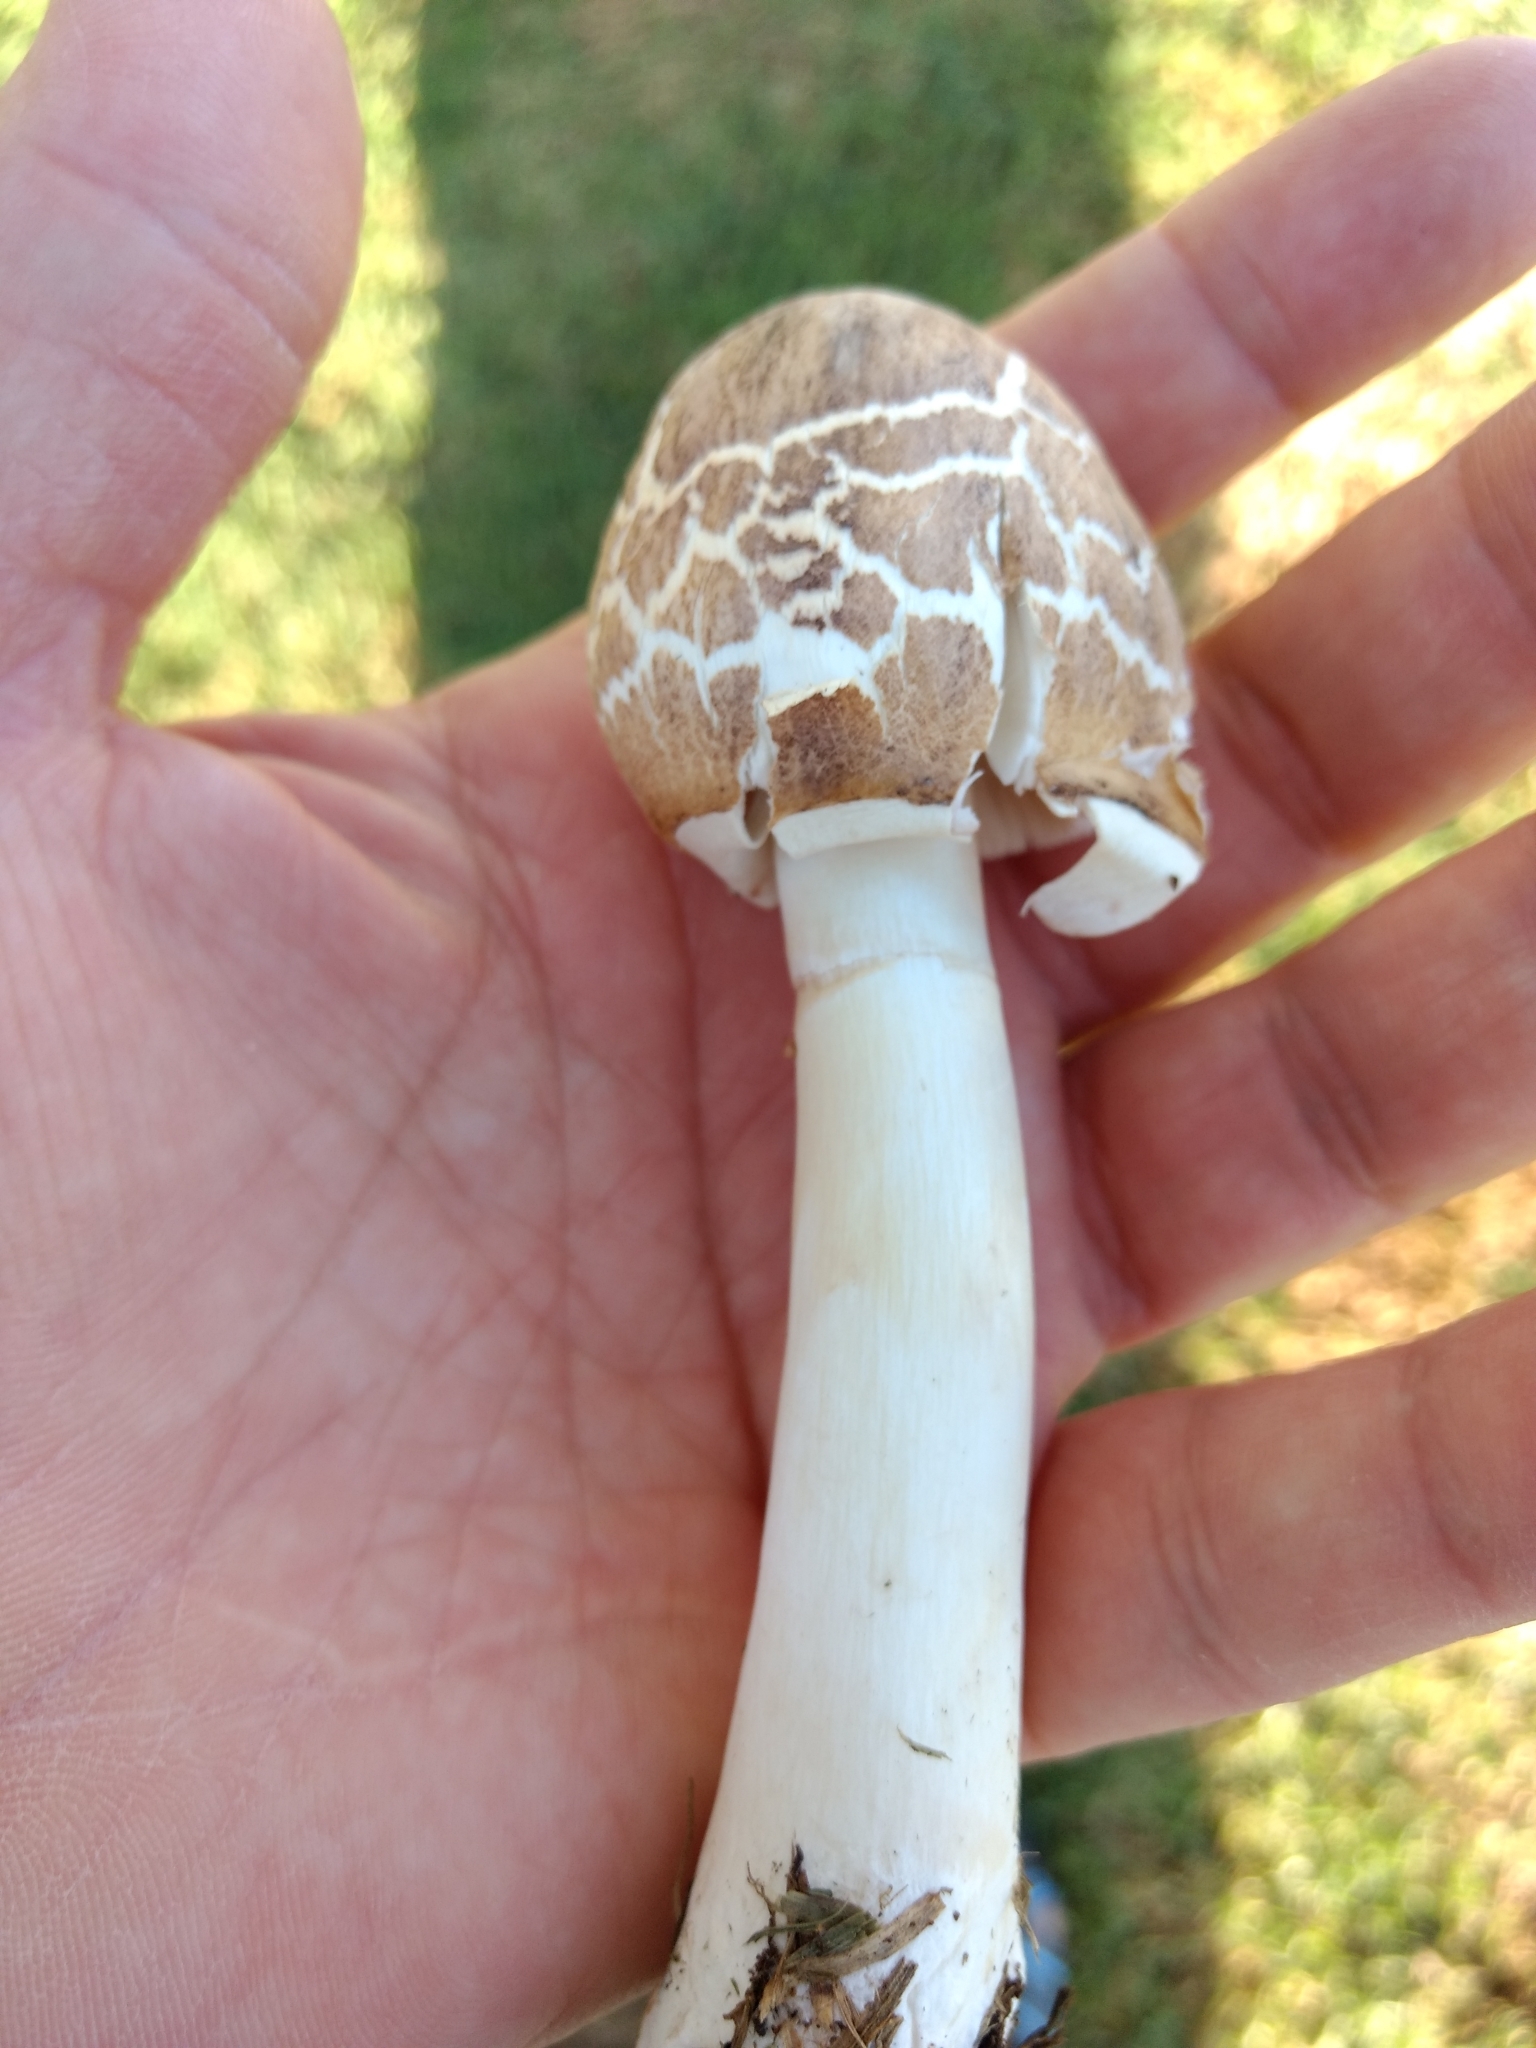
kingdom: Fungi
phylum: Basidiomycota
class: Agaricomycetes
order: Agaricales
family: Agaricaceae
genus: Chlorophyllum
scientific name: Chlorophyllum molybdites
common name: False parasol
